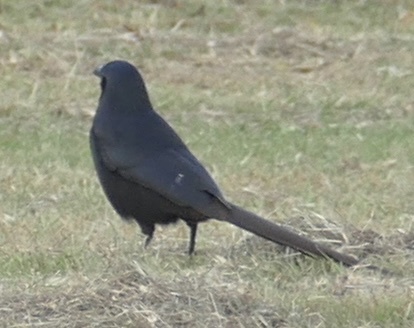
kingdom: Animalia
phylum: Chordata
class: Aves
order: Passeriformes
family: Corvidae
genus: Ptilostomus
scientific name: Ptilostomus afer
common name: Piapiac
